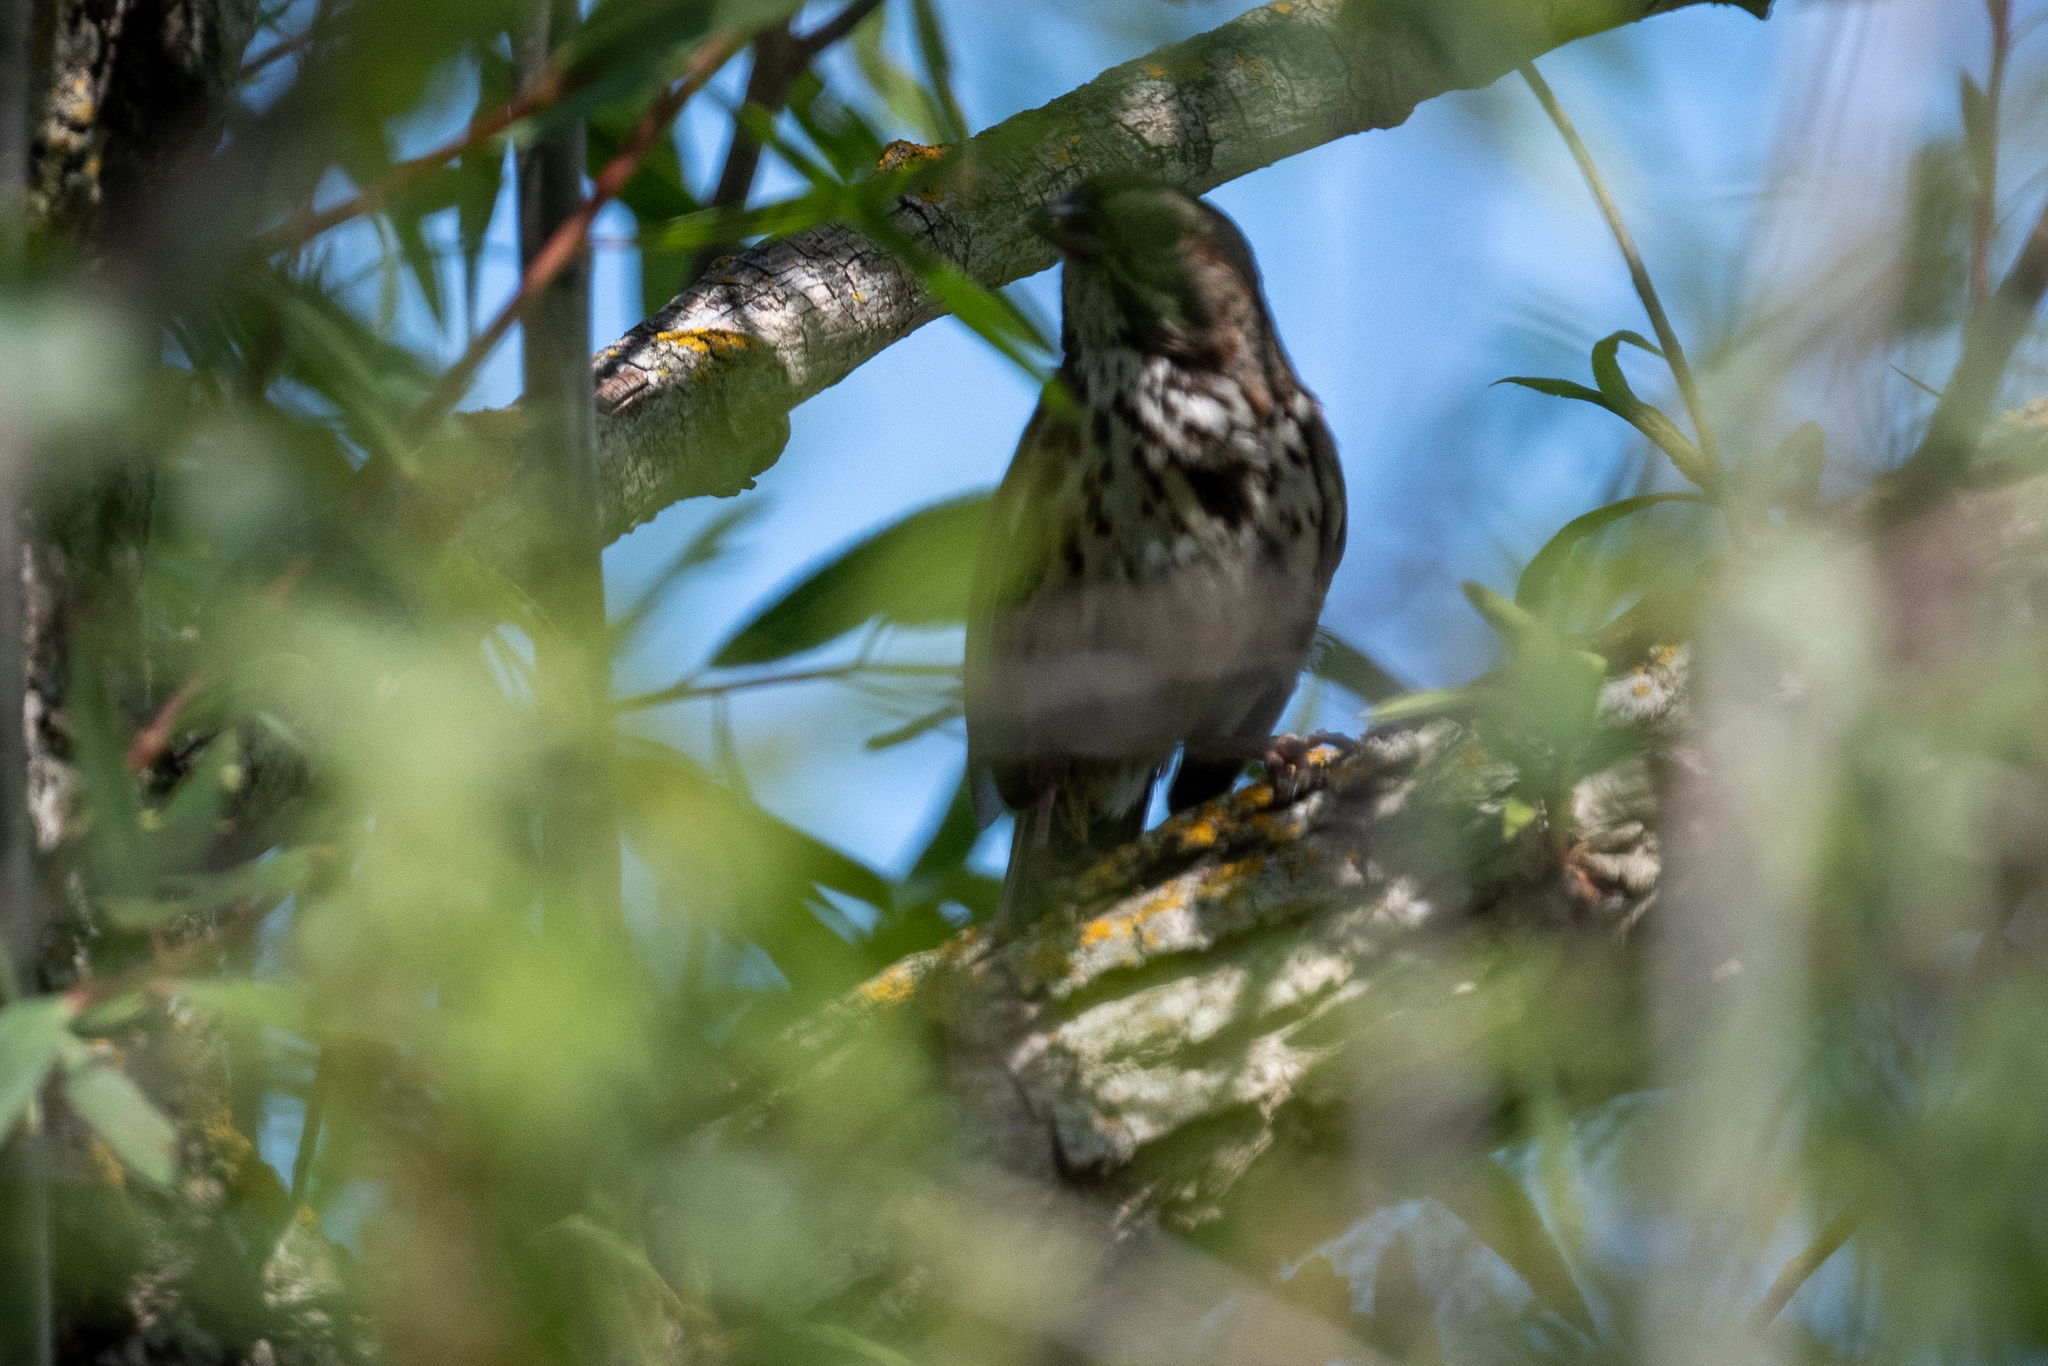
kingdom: Animalia
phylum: Chordata
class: Aves
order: Passeriformes
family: Passerellidae
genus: Melospiza
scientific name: Melospiza melodia
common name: Song sparrow
